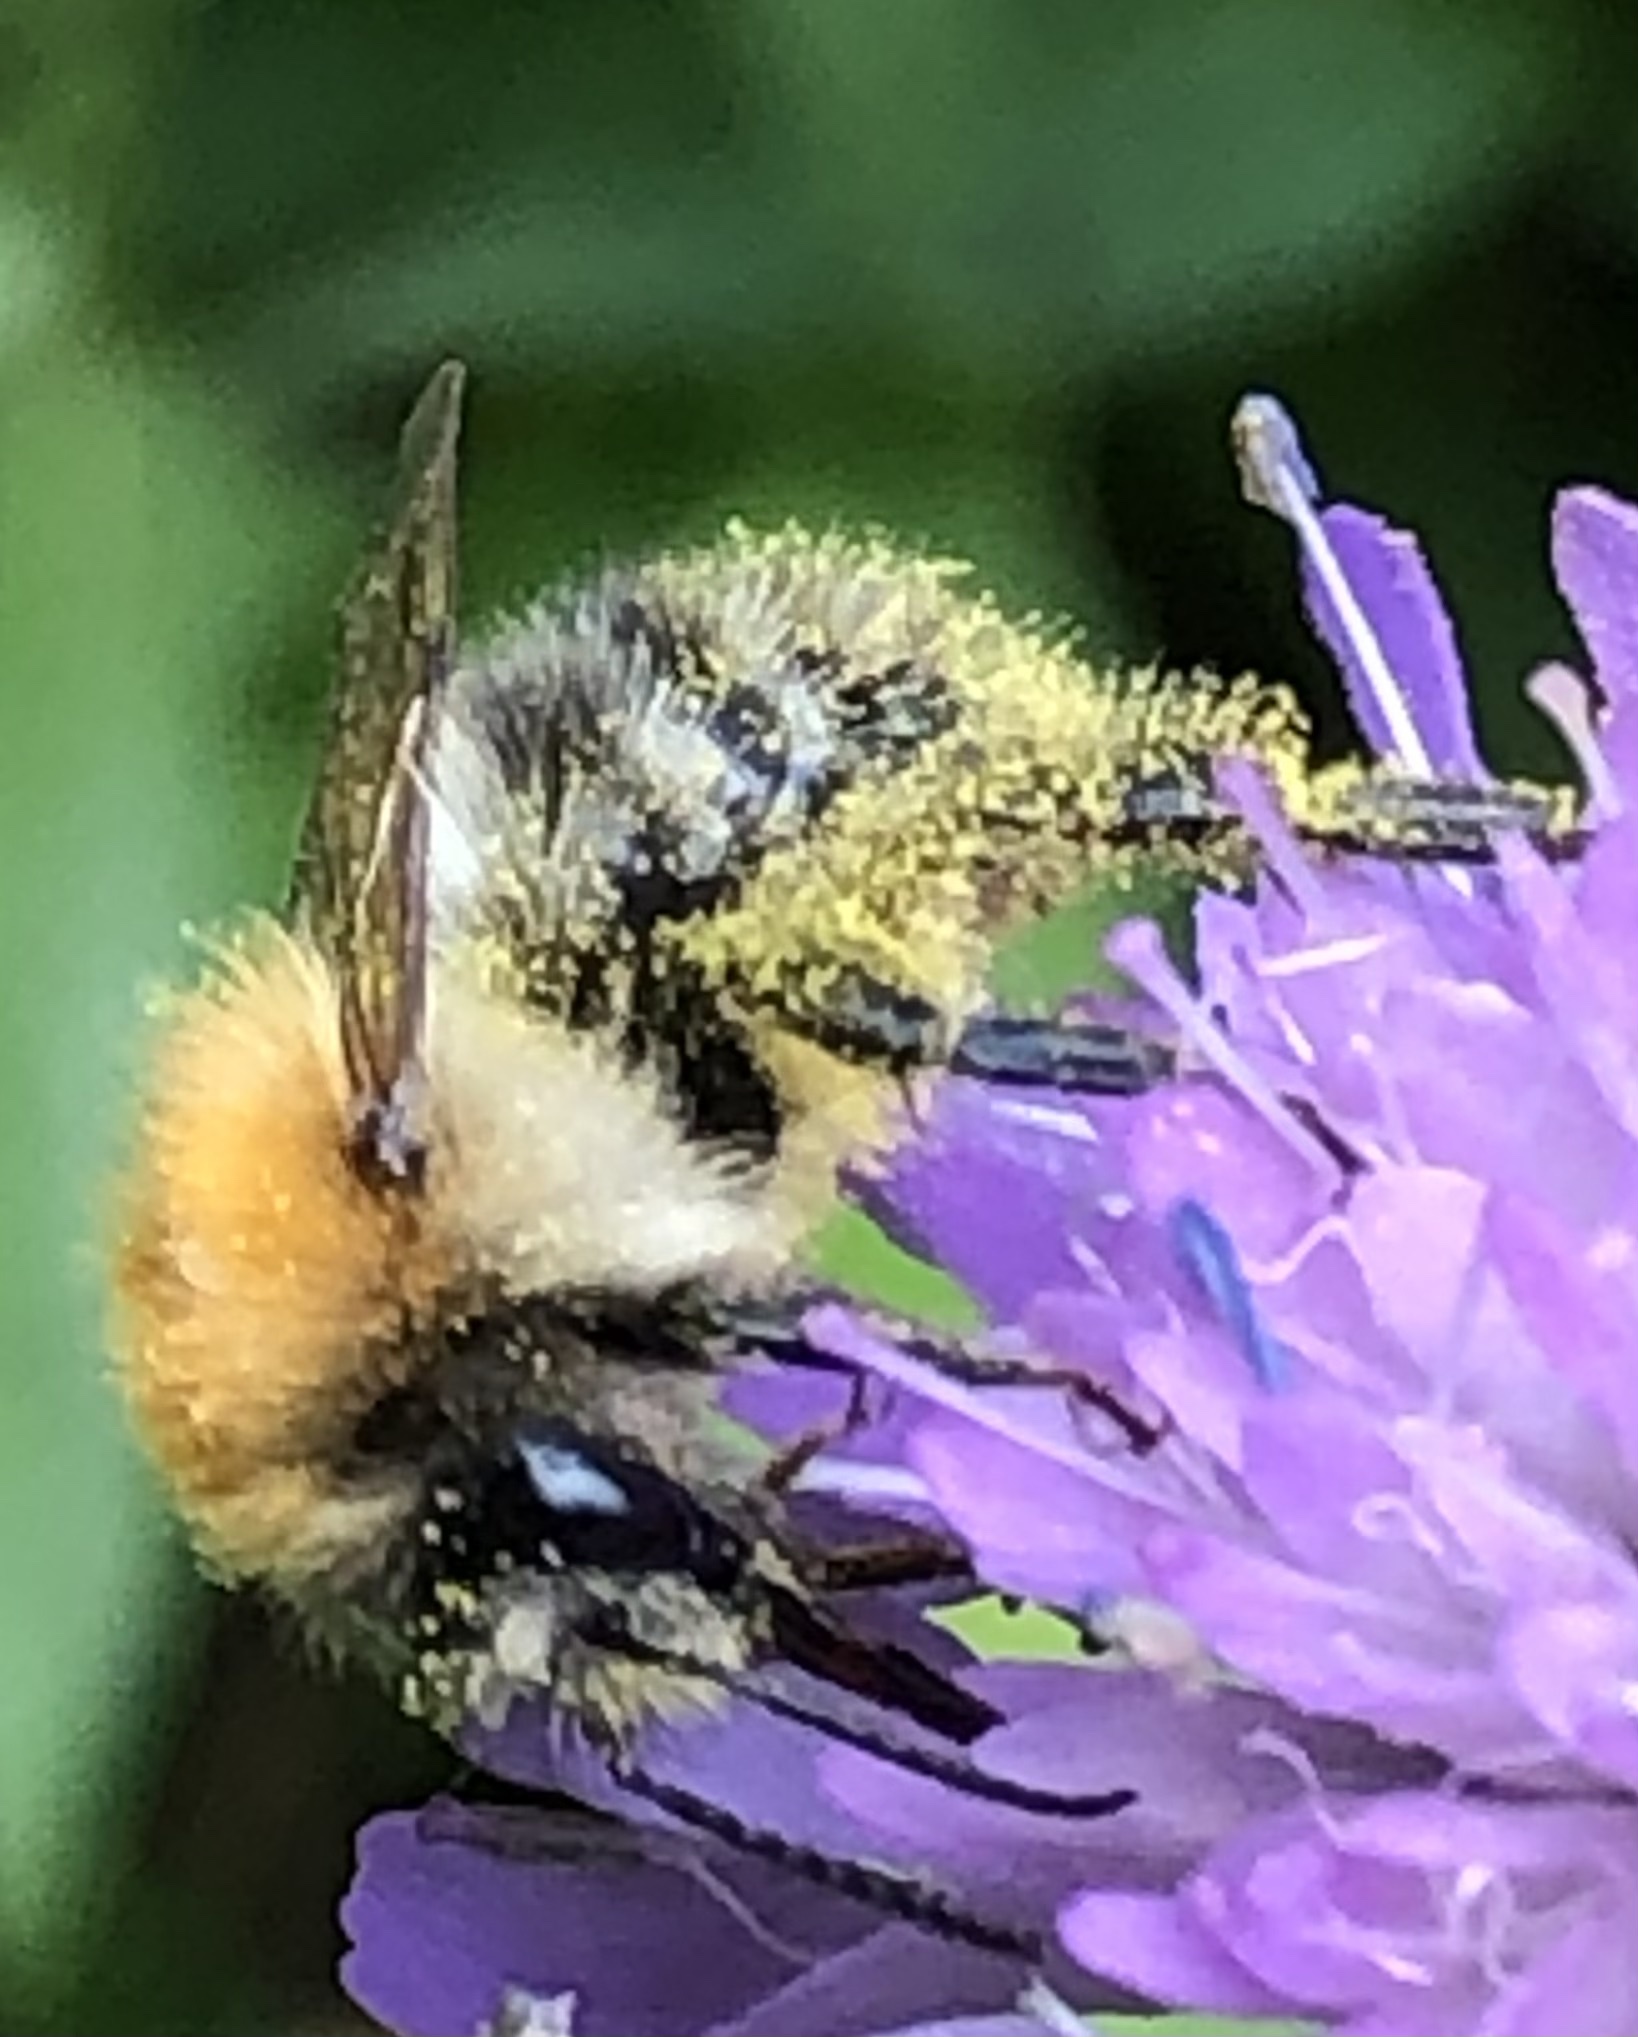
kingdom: Animalia
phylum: Arthropoda
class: Insecta
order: Hymenoptera
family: Apidae
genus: Bombus
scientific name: Bombus pascuorum
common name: Common carder bee
